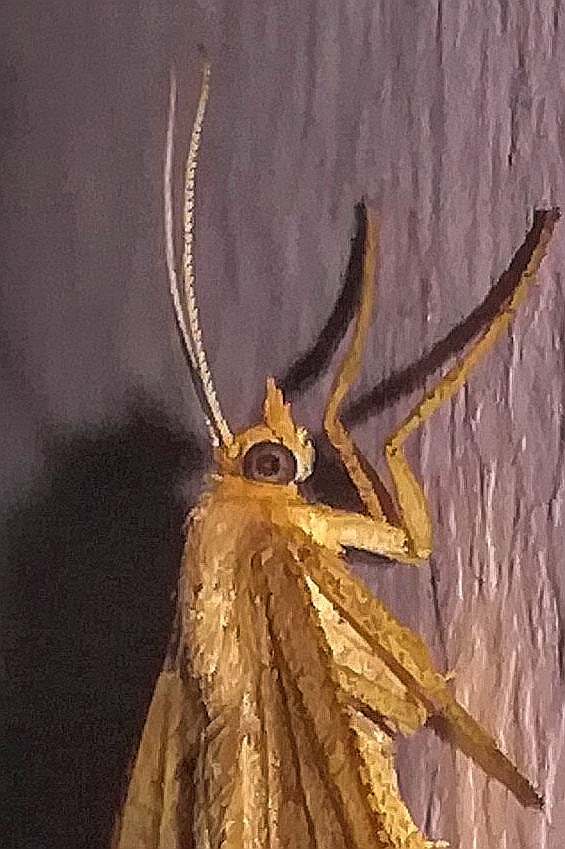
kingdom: Animalia
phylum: Arthropoda
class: Insecta
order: Lepidoptera
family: Geometridae
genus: Tephrina
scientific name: Tephrina arenacearia
